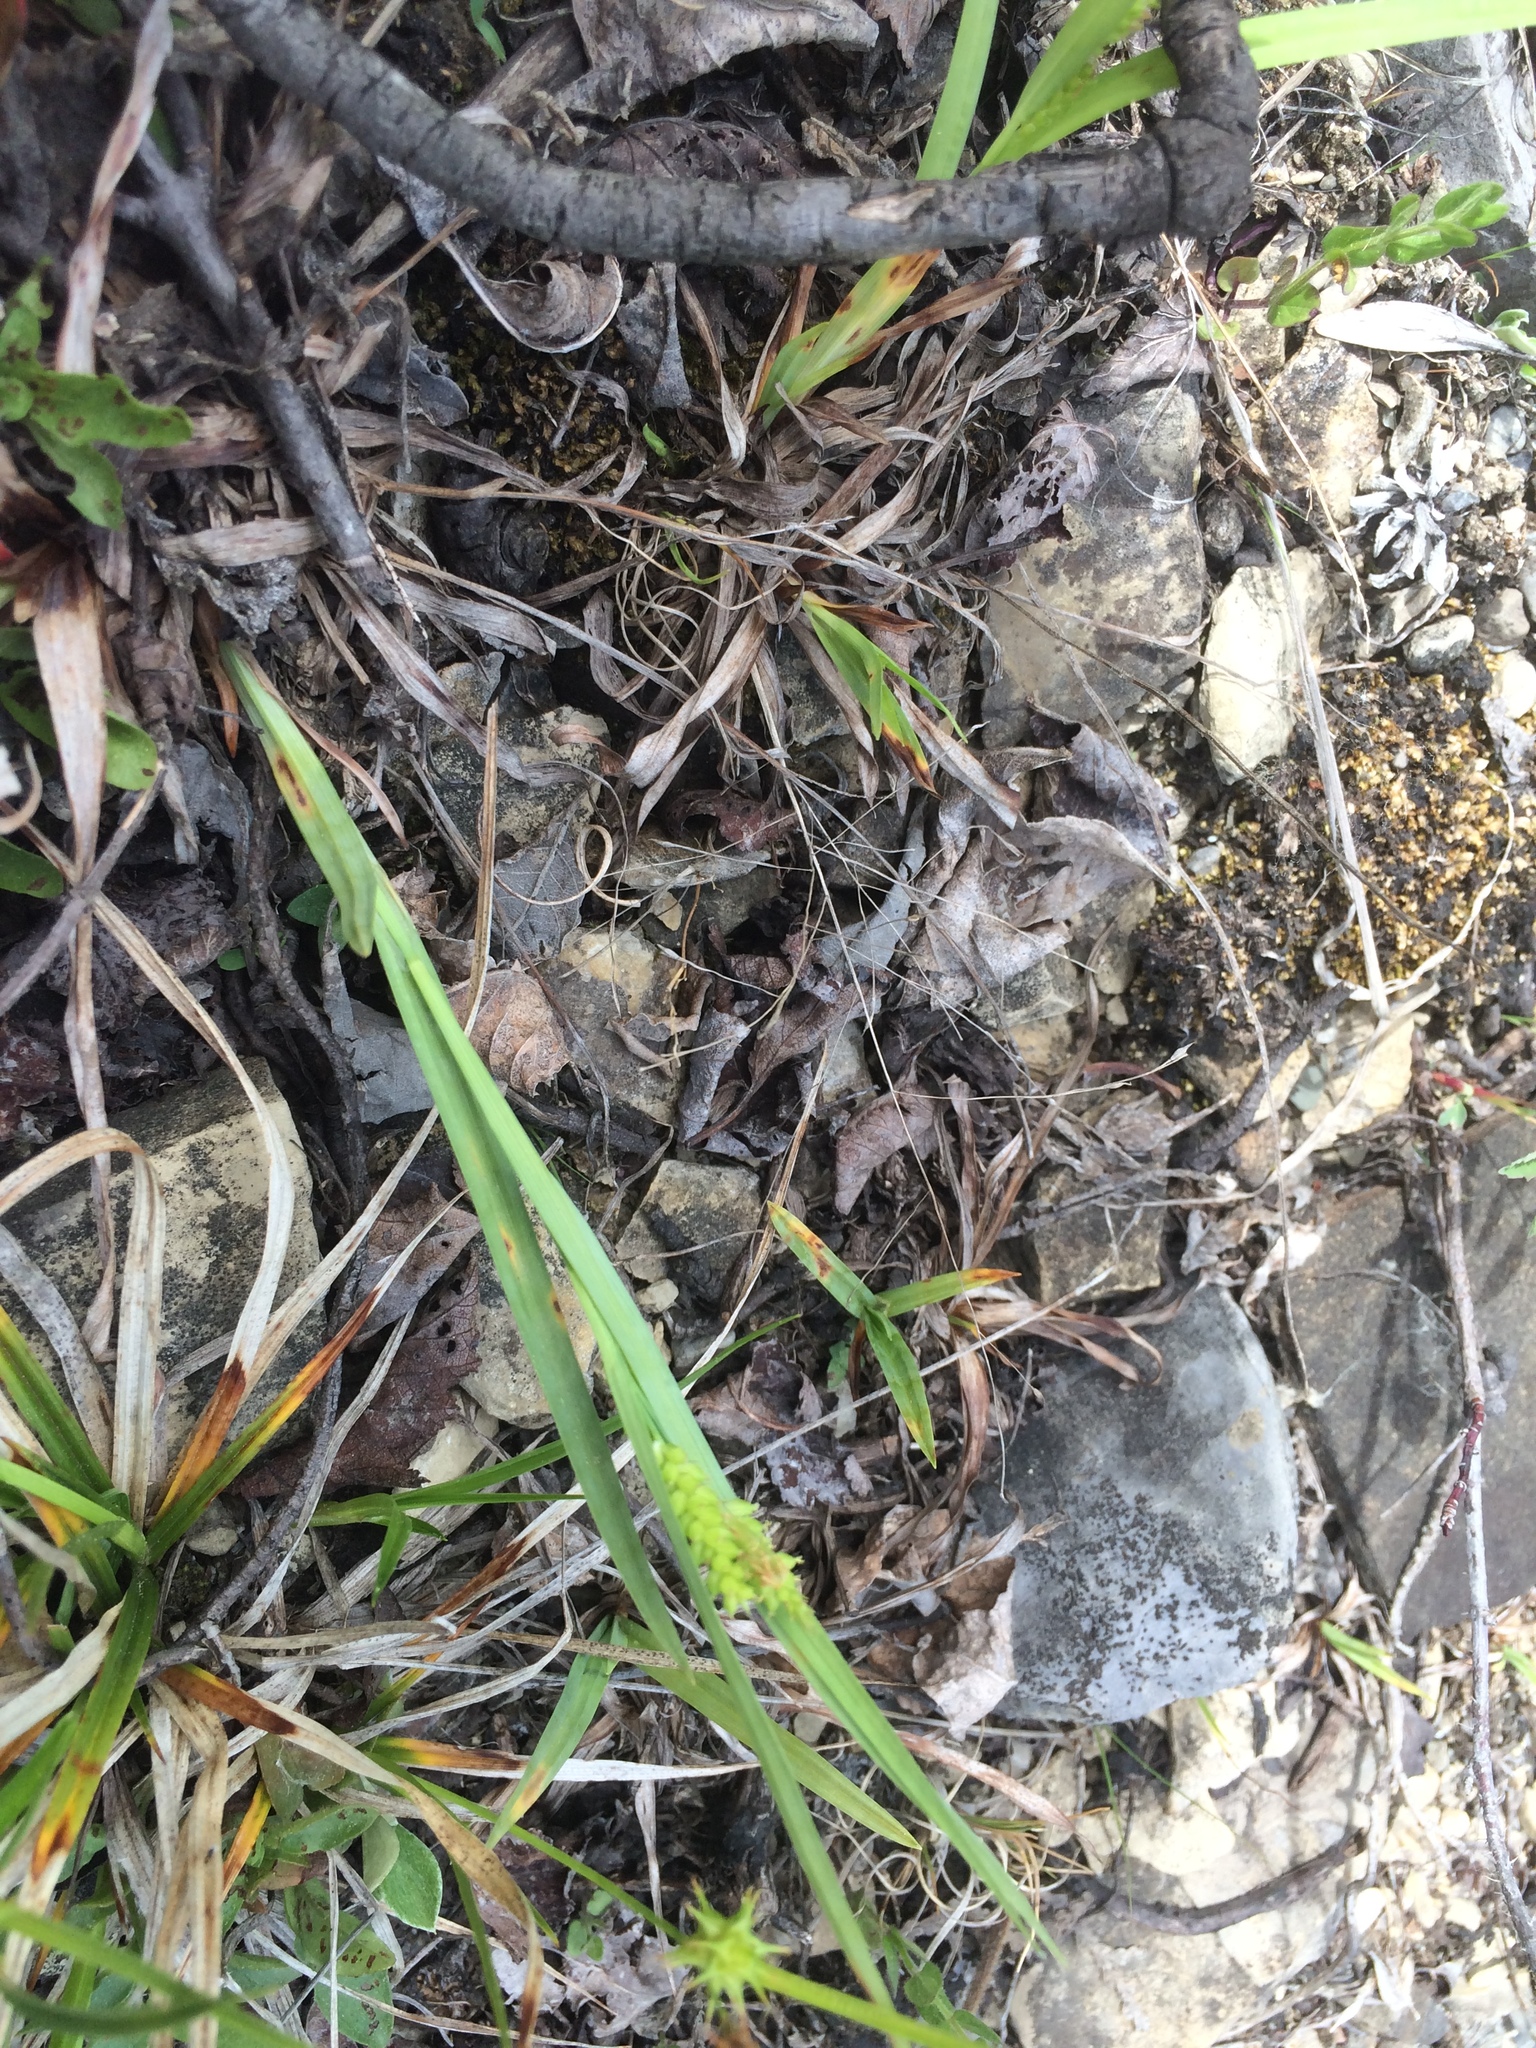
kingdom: Plantae
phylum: Tracheophyta
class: Liliopsida
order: Poales
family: Cyperaceae
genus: Carex
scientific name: Carex granularis
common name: Granular sedge
